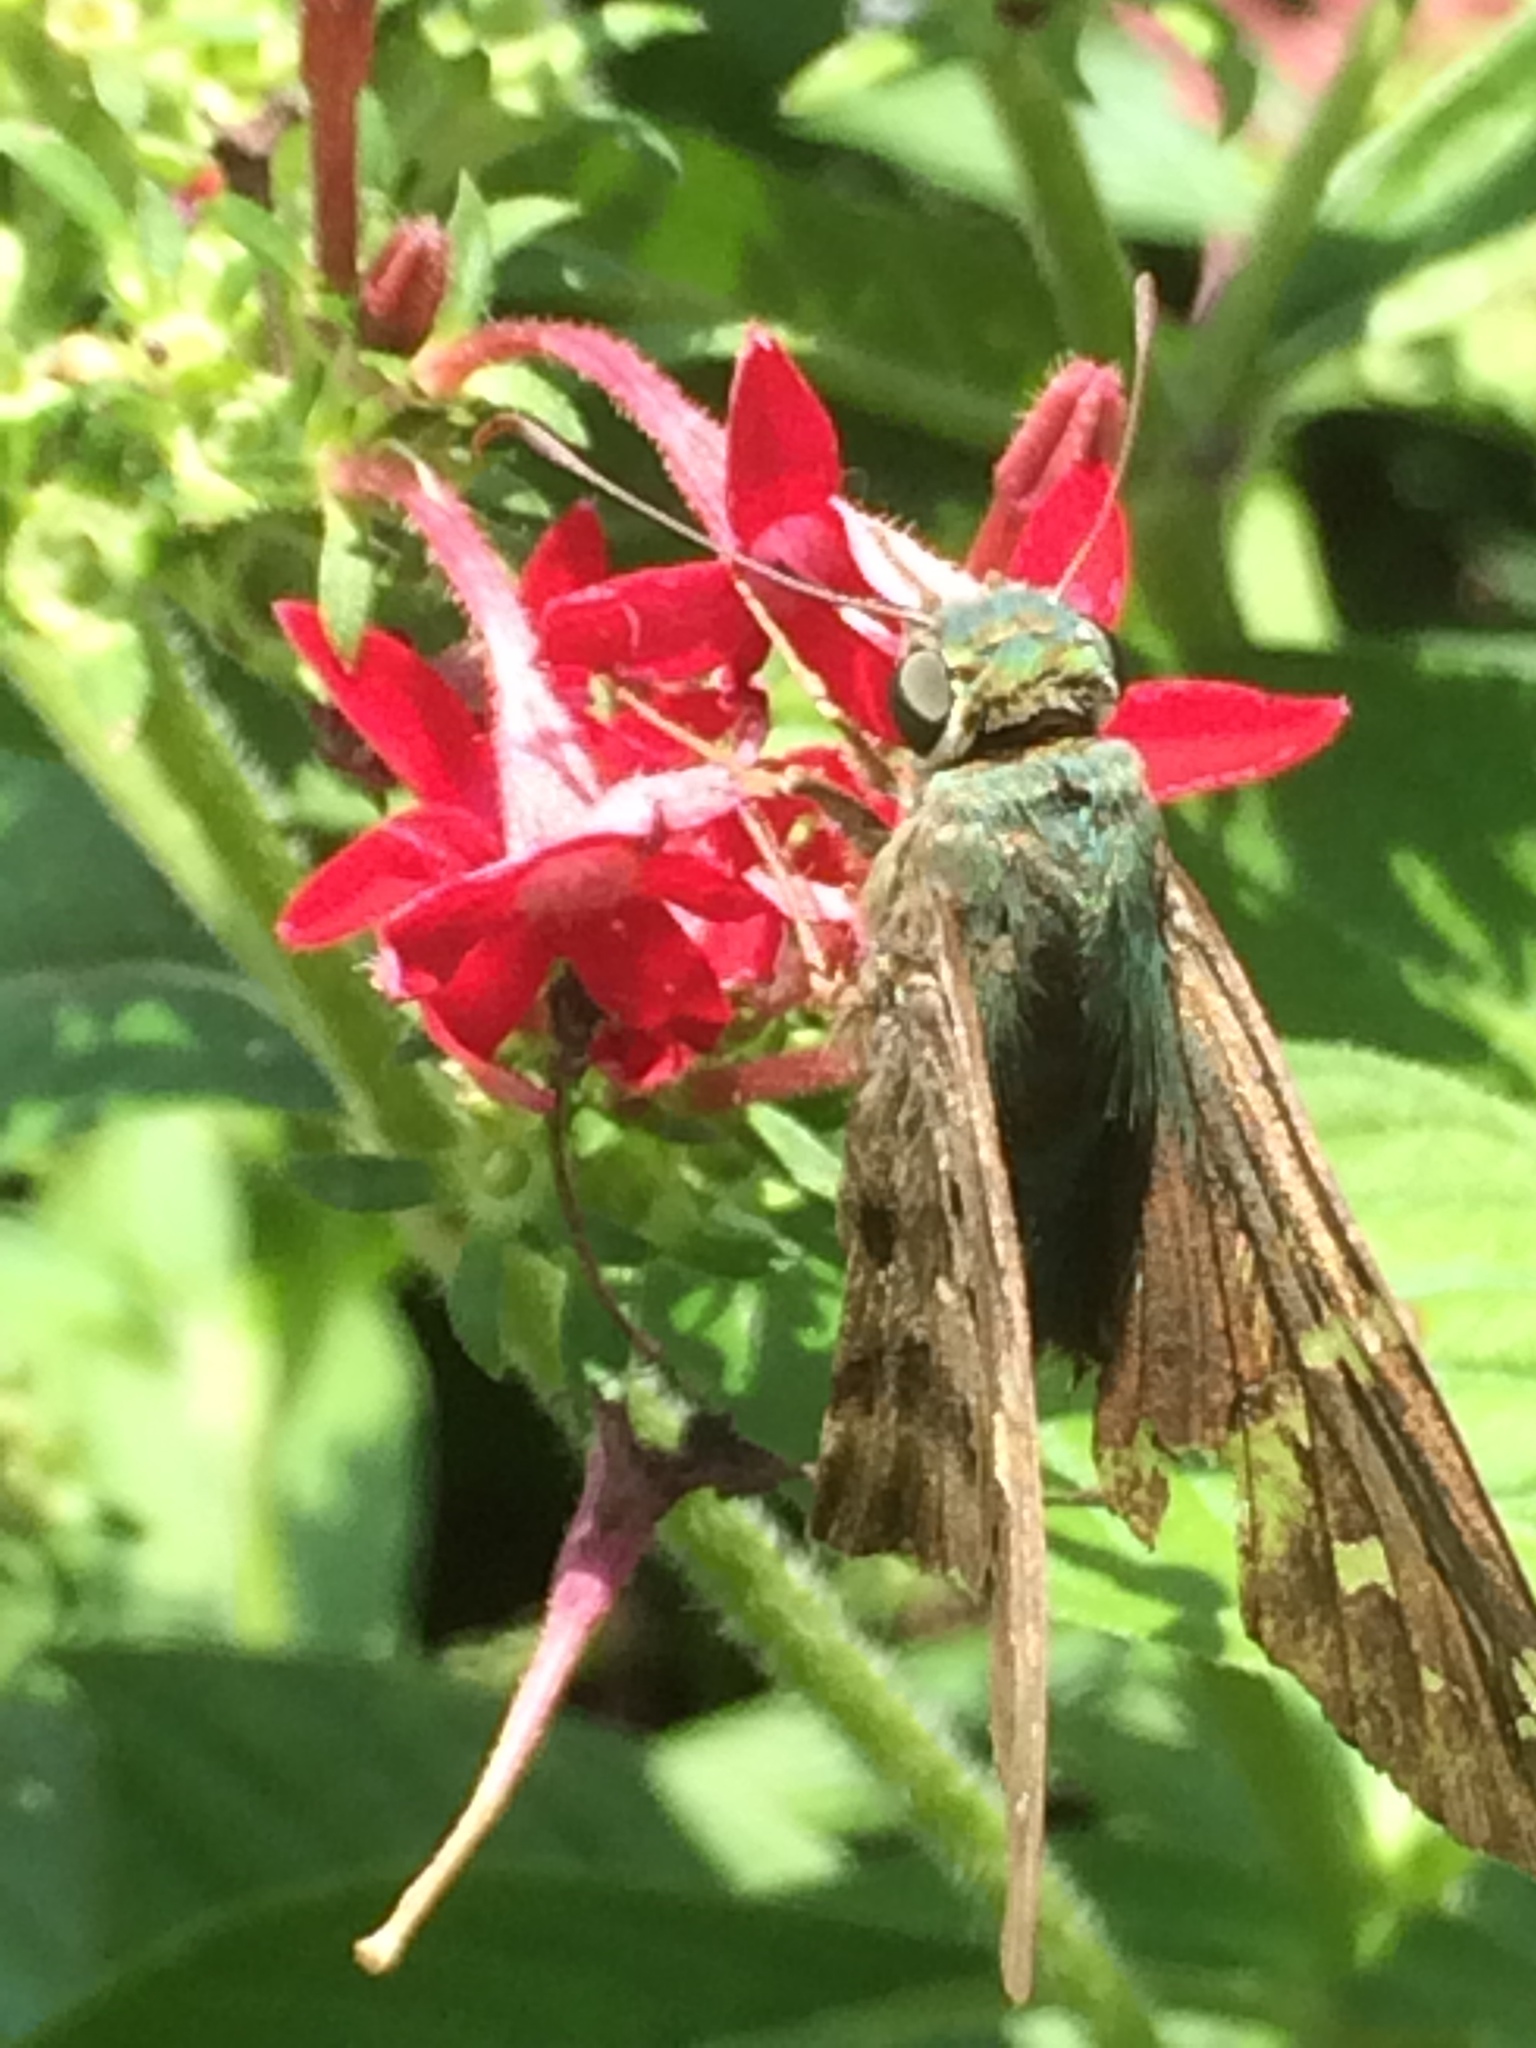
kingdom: Animalia
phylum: Arthropoda
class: Insecta
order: Lepidoptera
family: Hesperiidae
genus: Urbanus
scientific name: Urbanus proteus
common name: Long-tailed skipper
